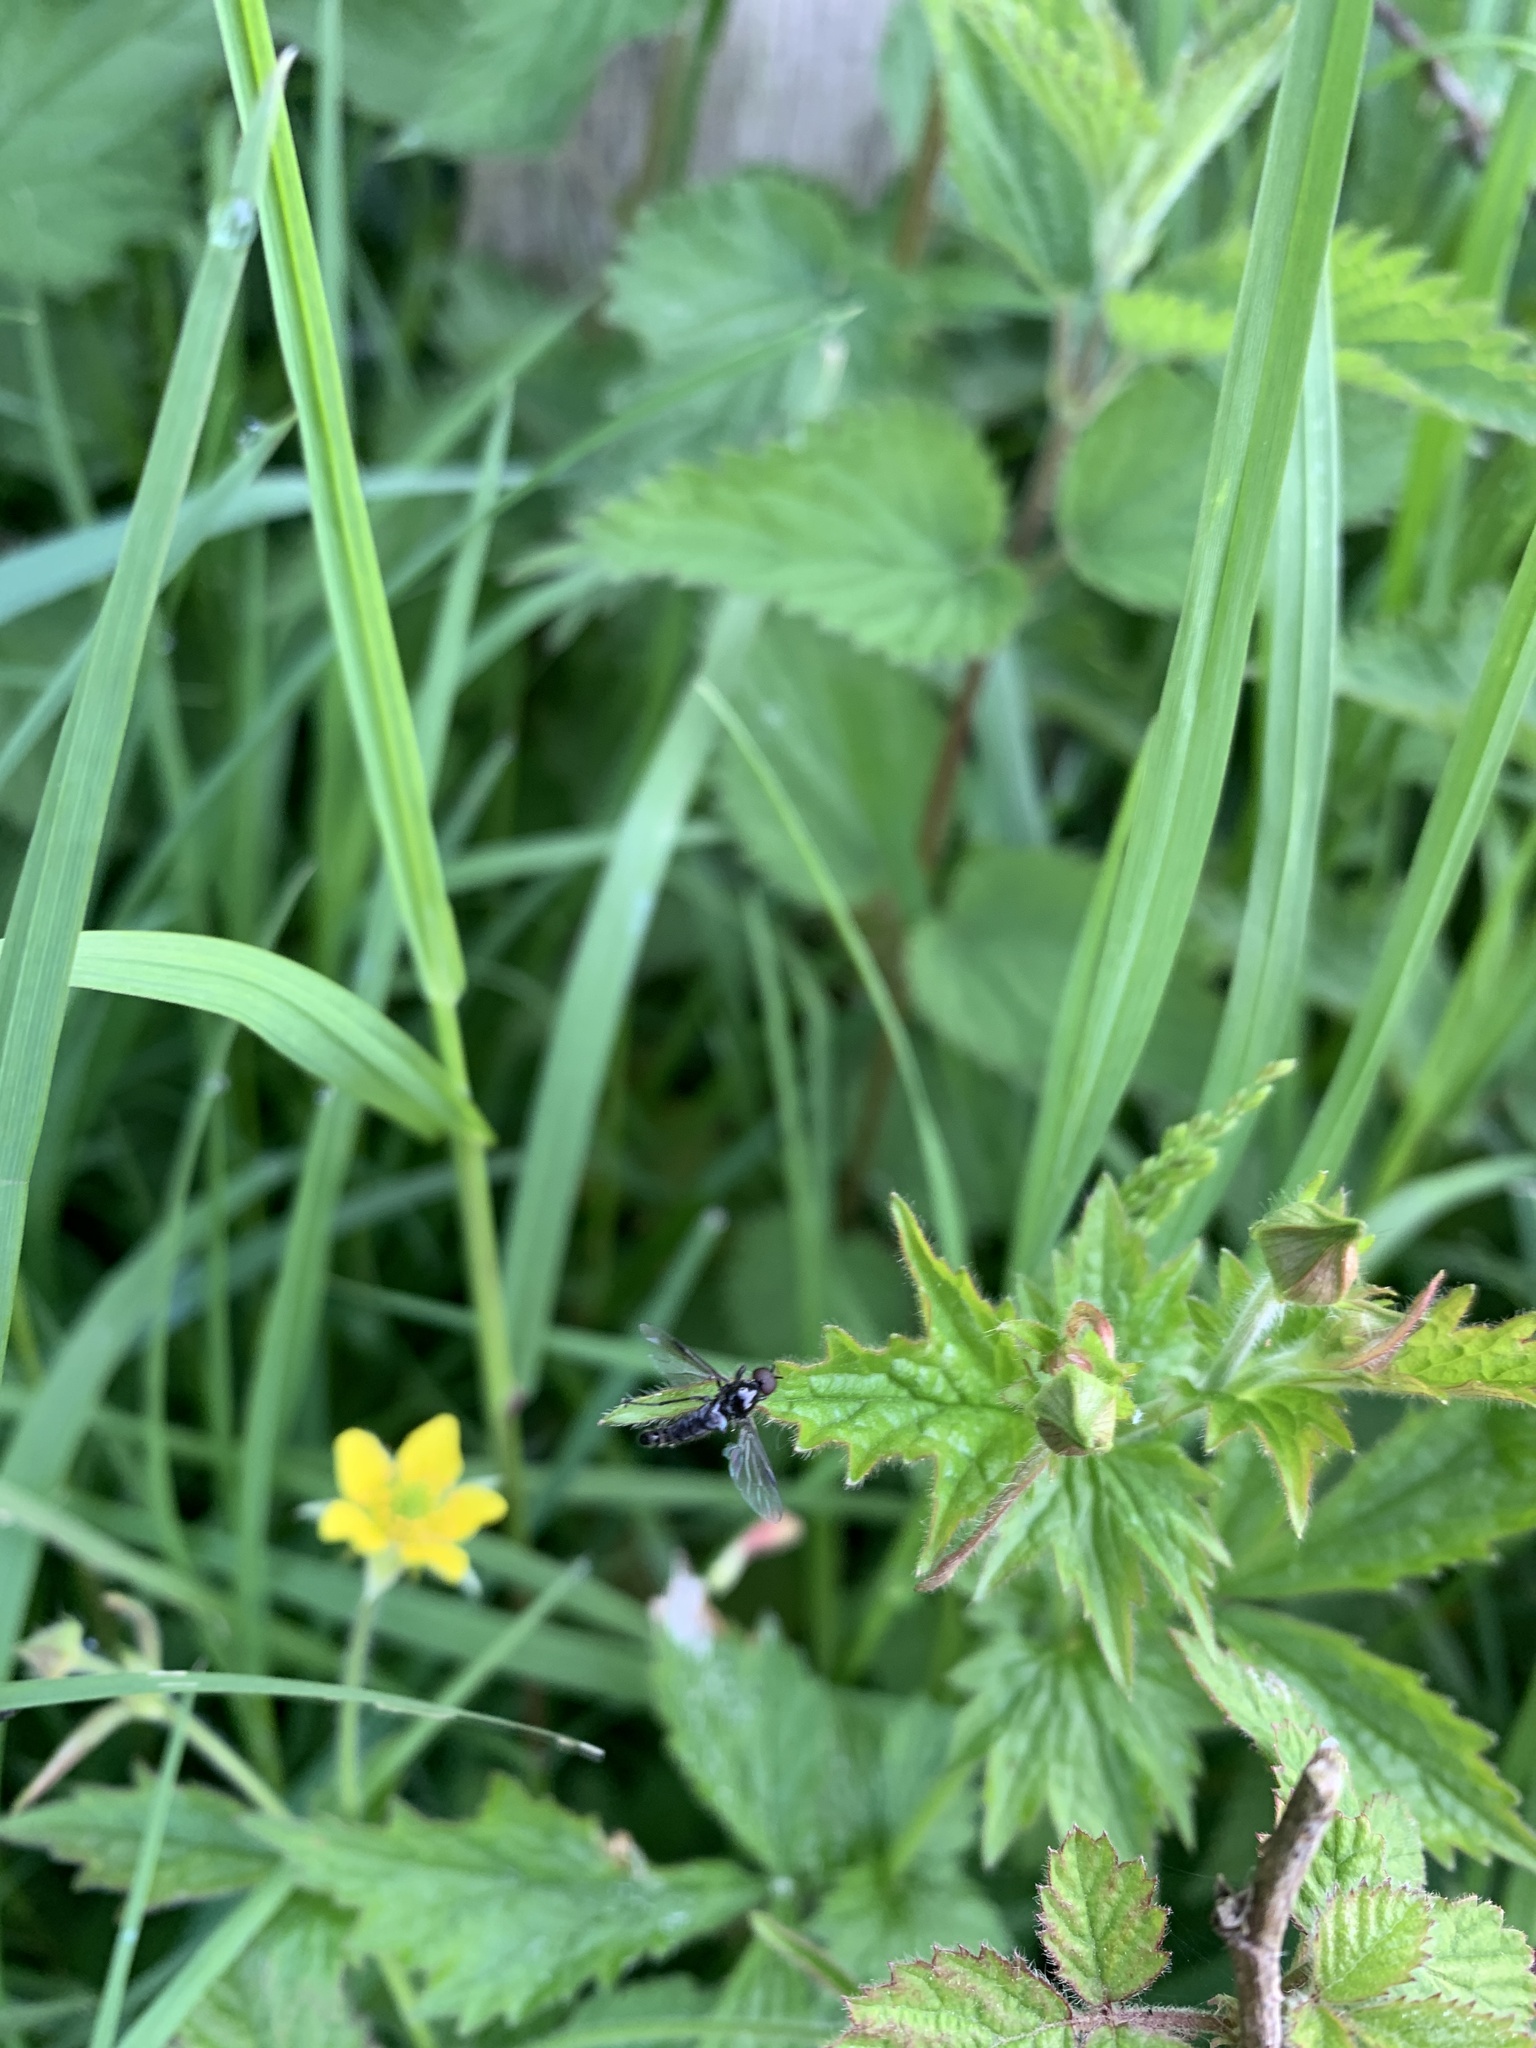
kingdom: Animalia
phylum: Arthropoda
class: Insecta
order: Diptera
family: Rhagionidae
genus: Chrysopilus
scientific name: Chrysopilus cristatus
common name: Black snipefly
